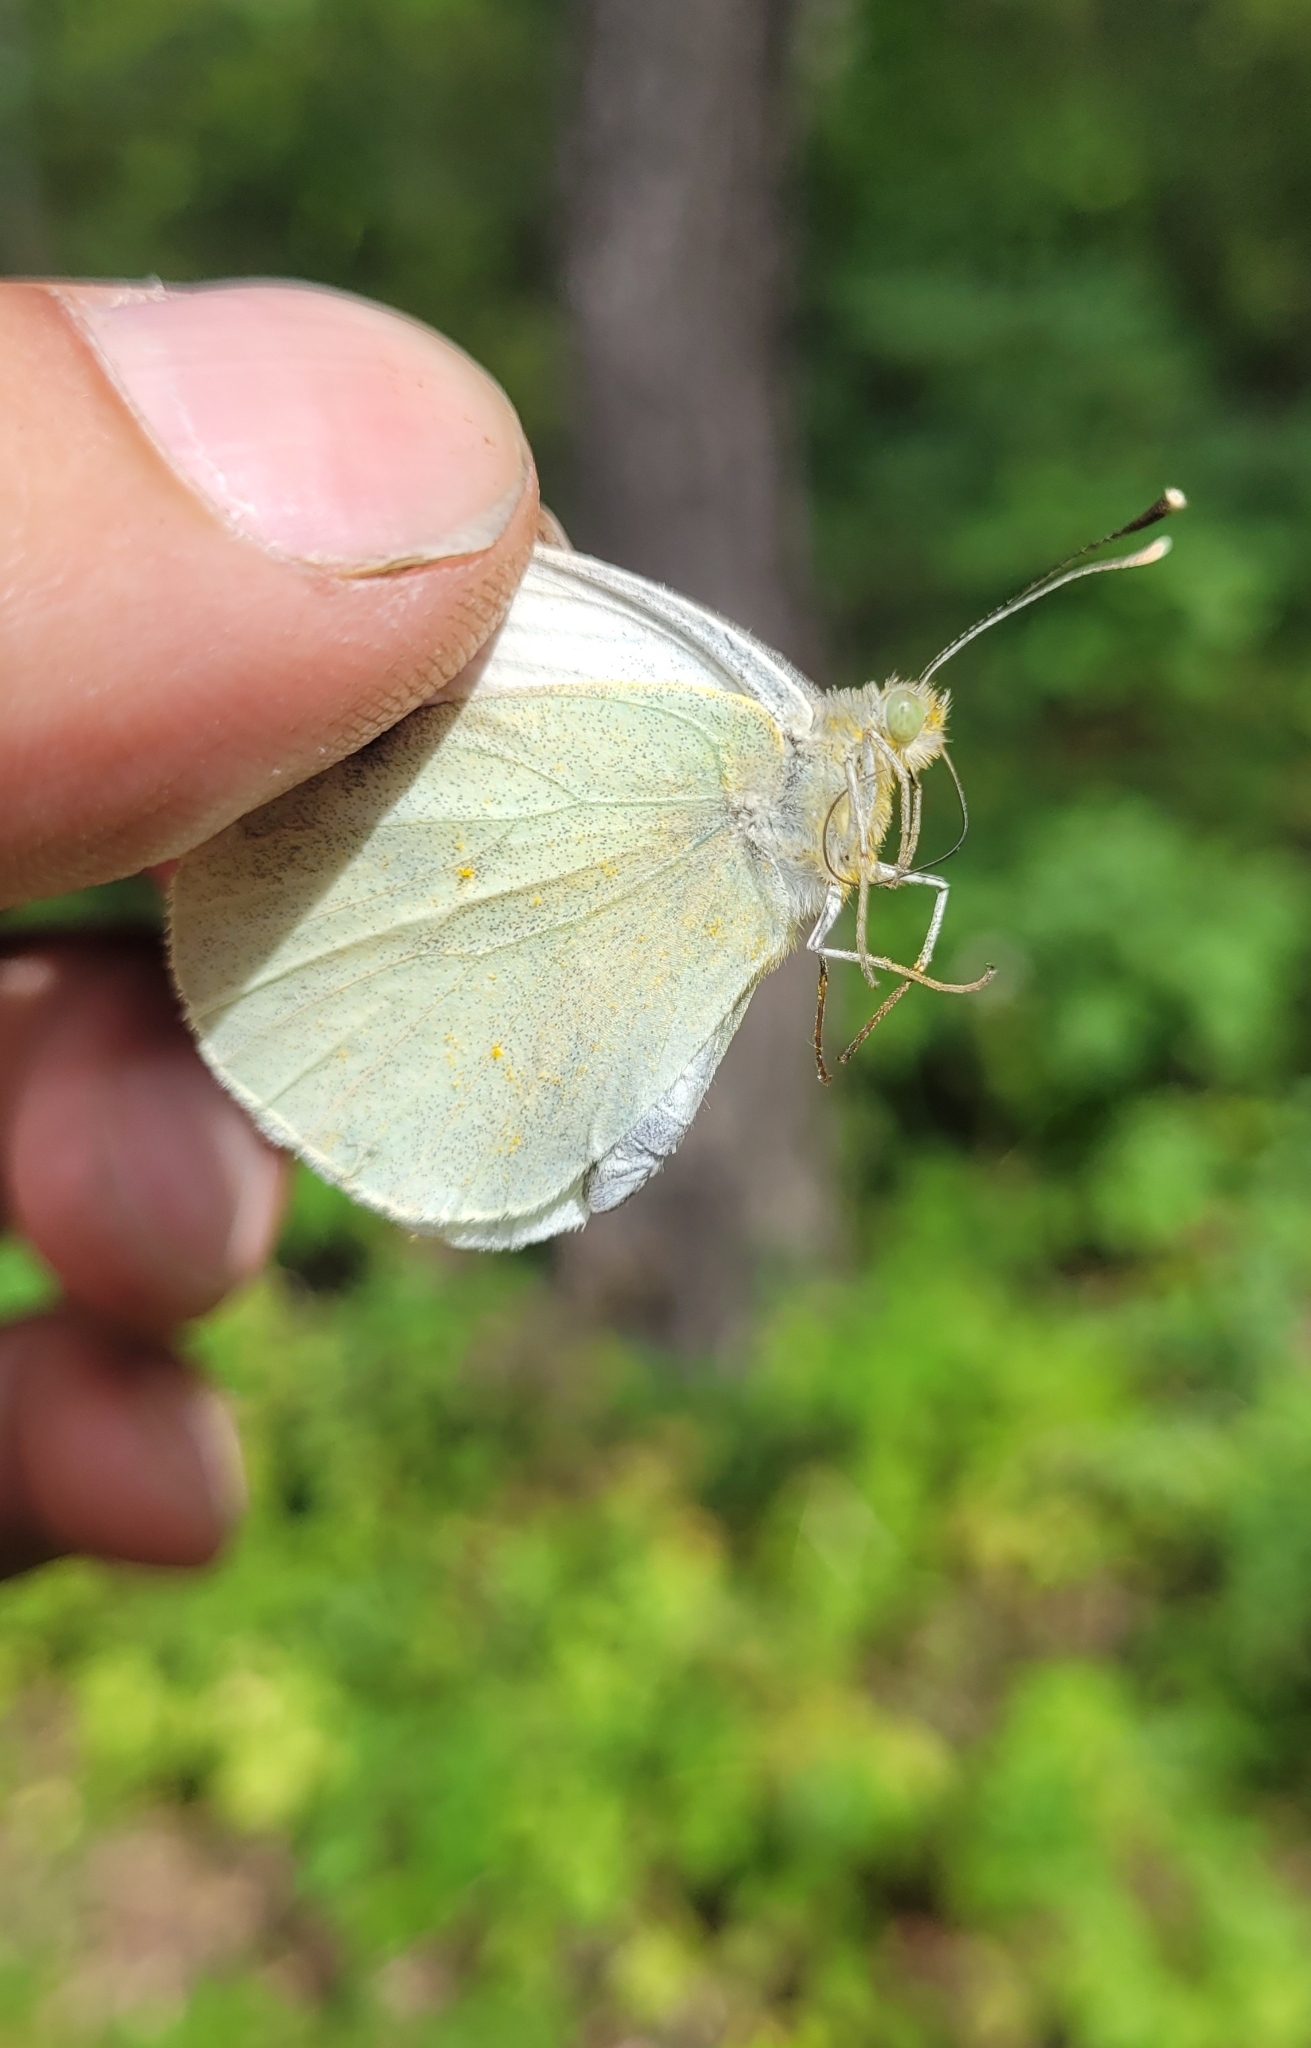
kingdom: Animalia
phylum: Arthropoda
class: Insecta
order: Lepidoptera
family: Pieridae
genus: Pieris
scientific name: Pieris brassicae
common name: Large white
